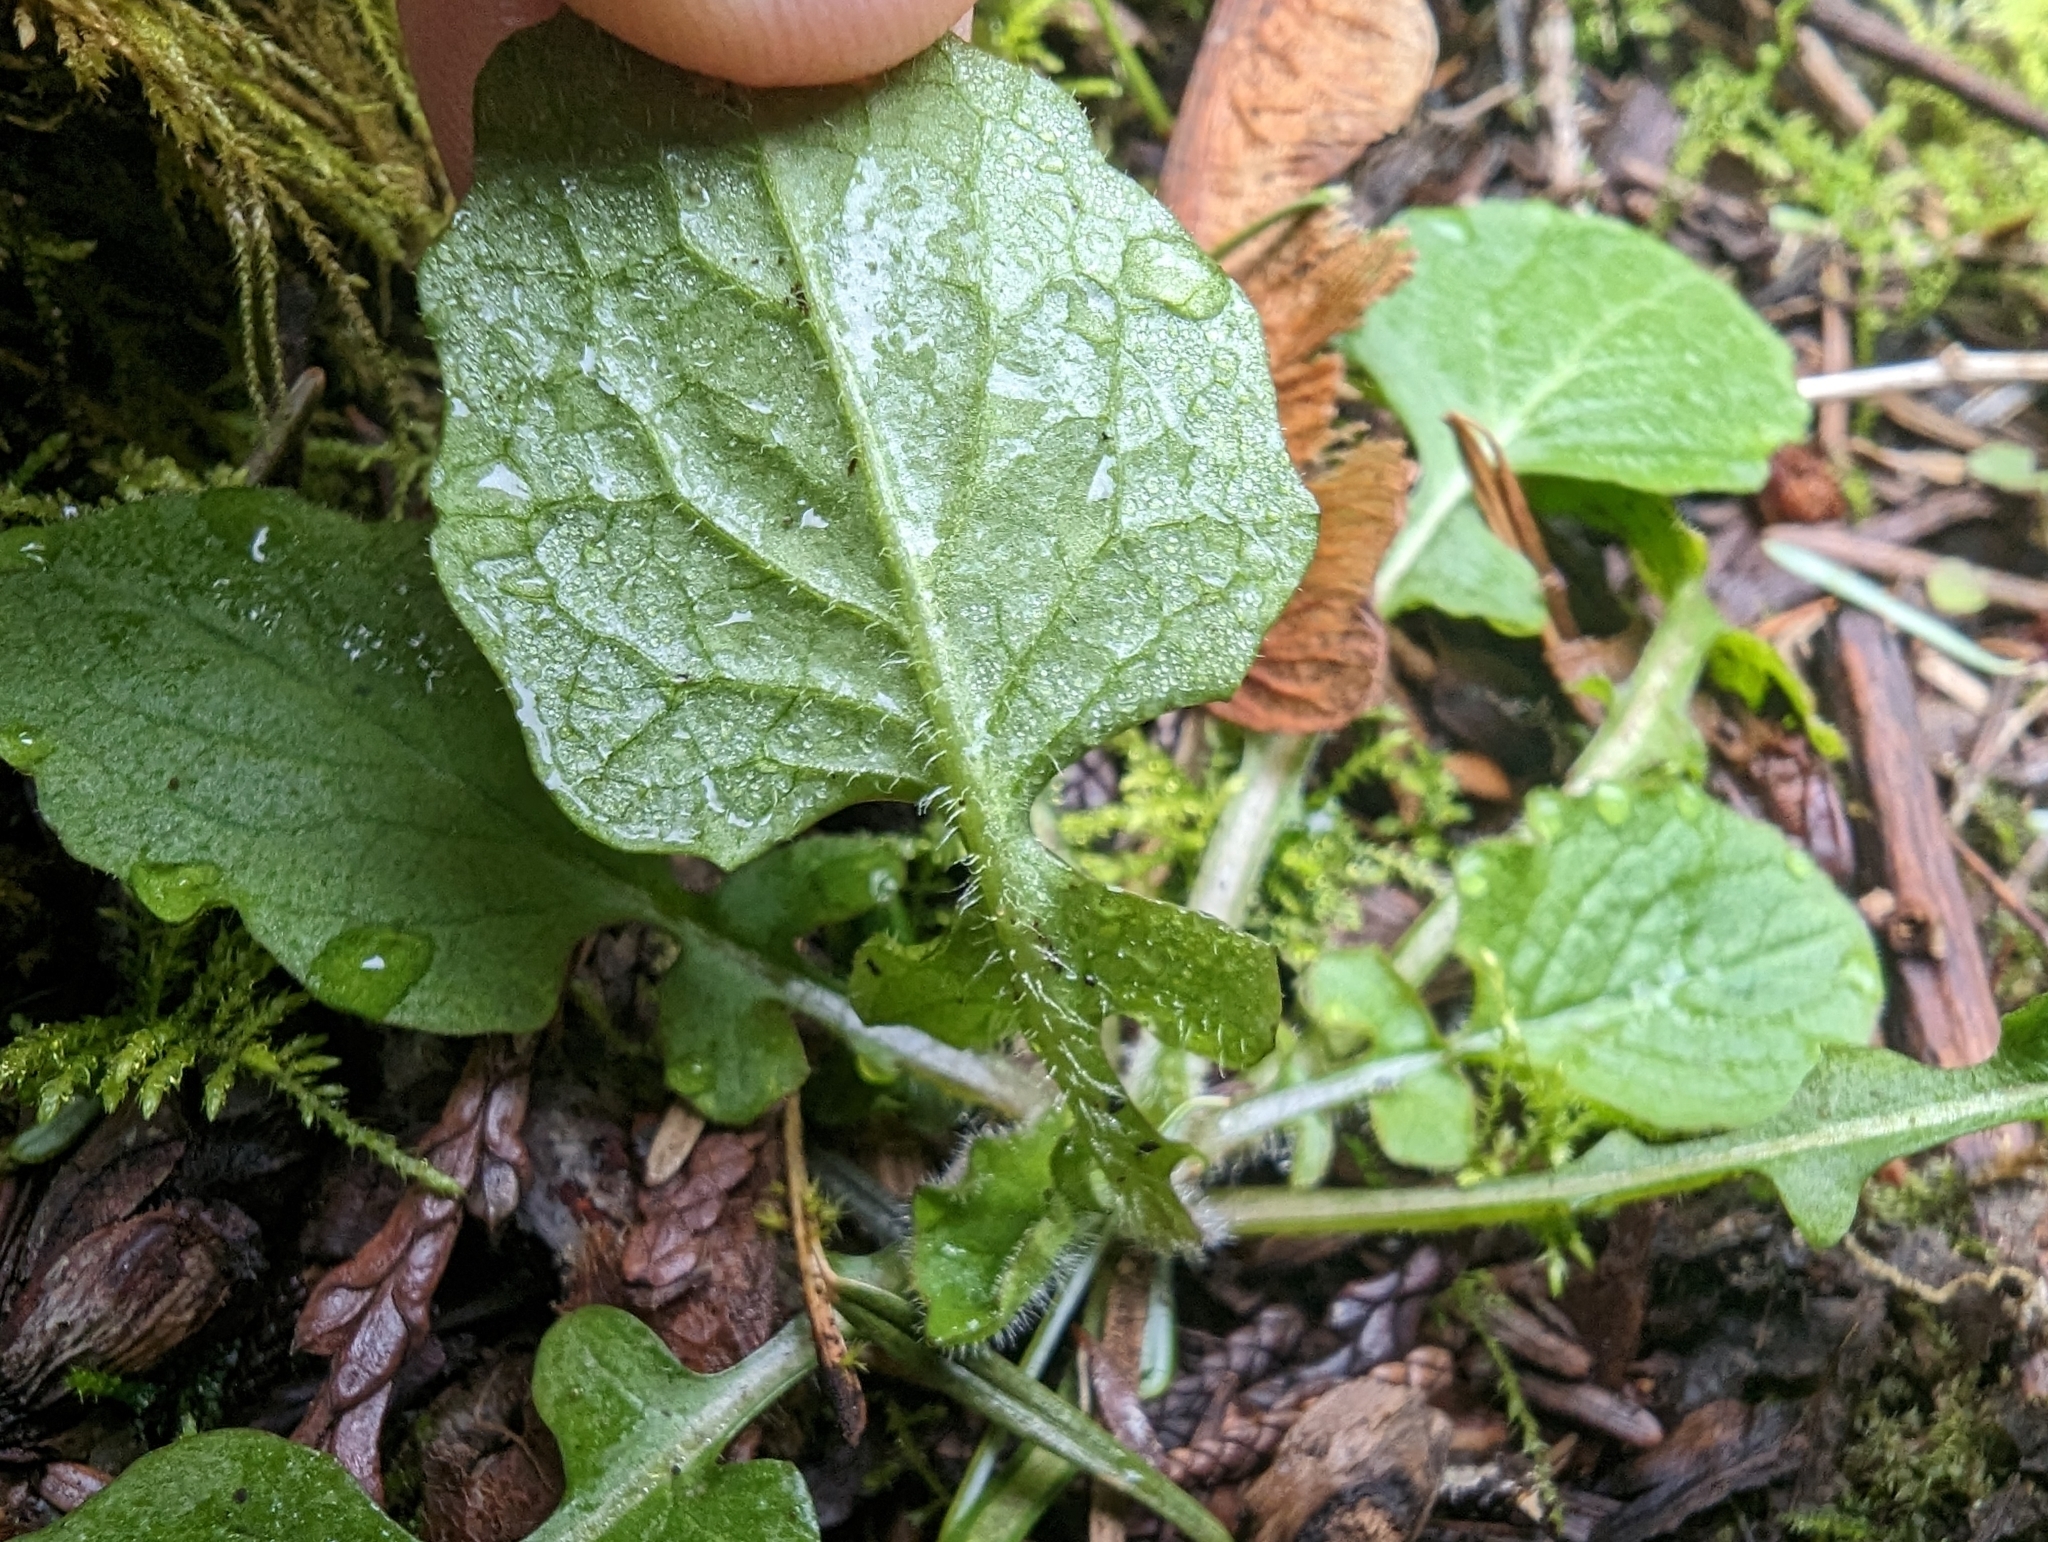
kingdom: Plantae
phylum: Tracheophyta
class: Magnoliopsida
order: Asterales
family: Asteraceae
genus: Lapsana
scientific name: Lapsana communis
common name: Nipplewort
